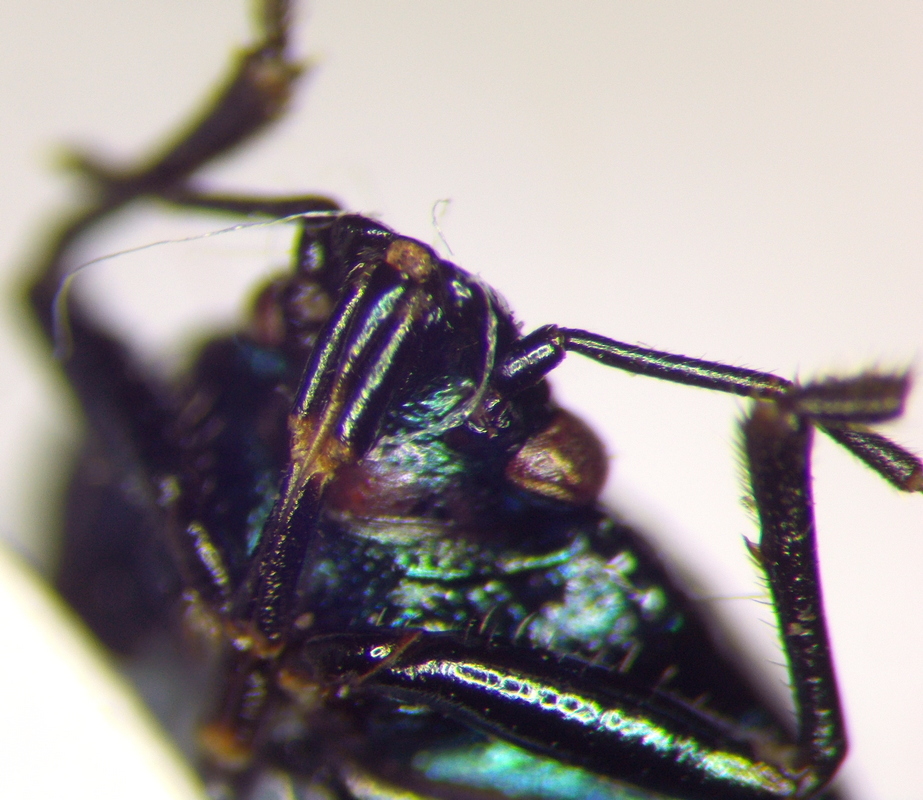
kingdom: Animalia
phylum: Arthropoda
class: Insecta
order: Hemiptera
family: Pentatomidae
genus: Zicrona
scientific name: Zicrona caerulea
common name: Blue shieldbug
